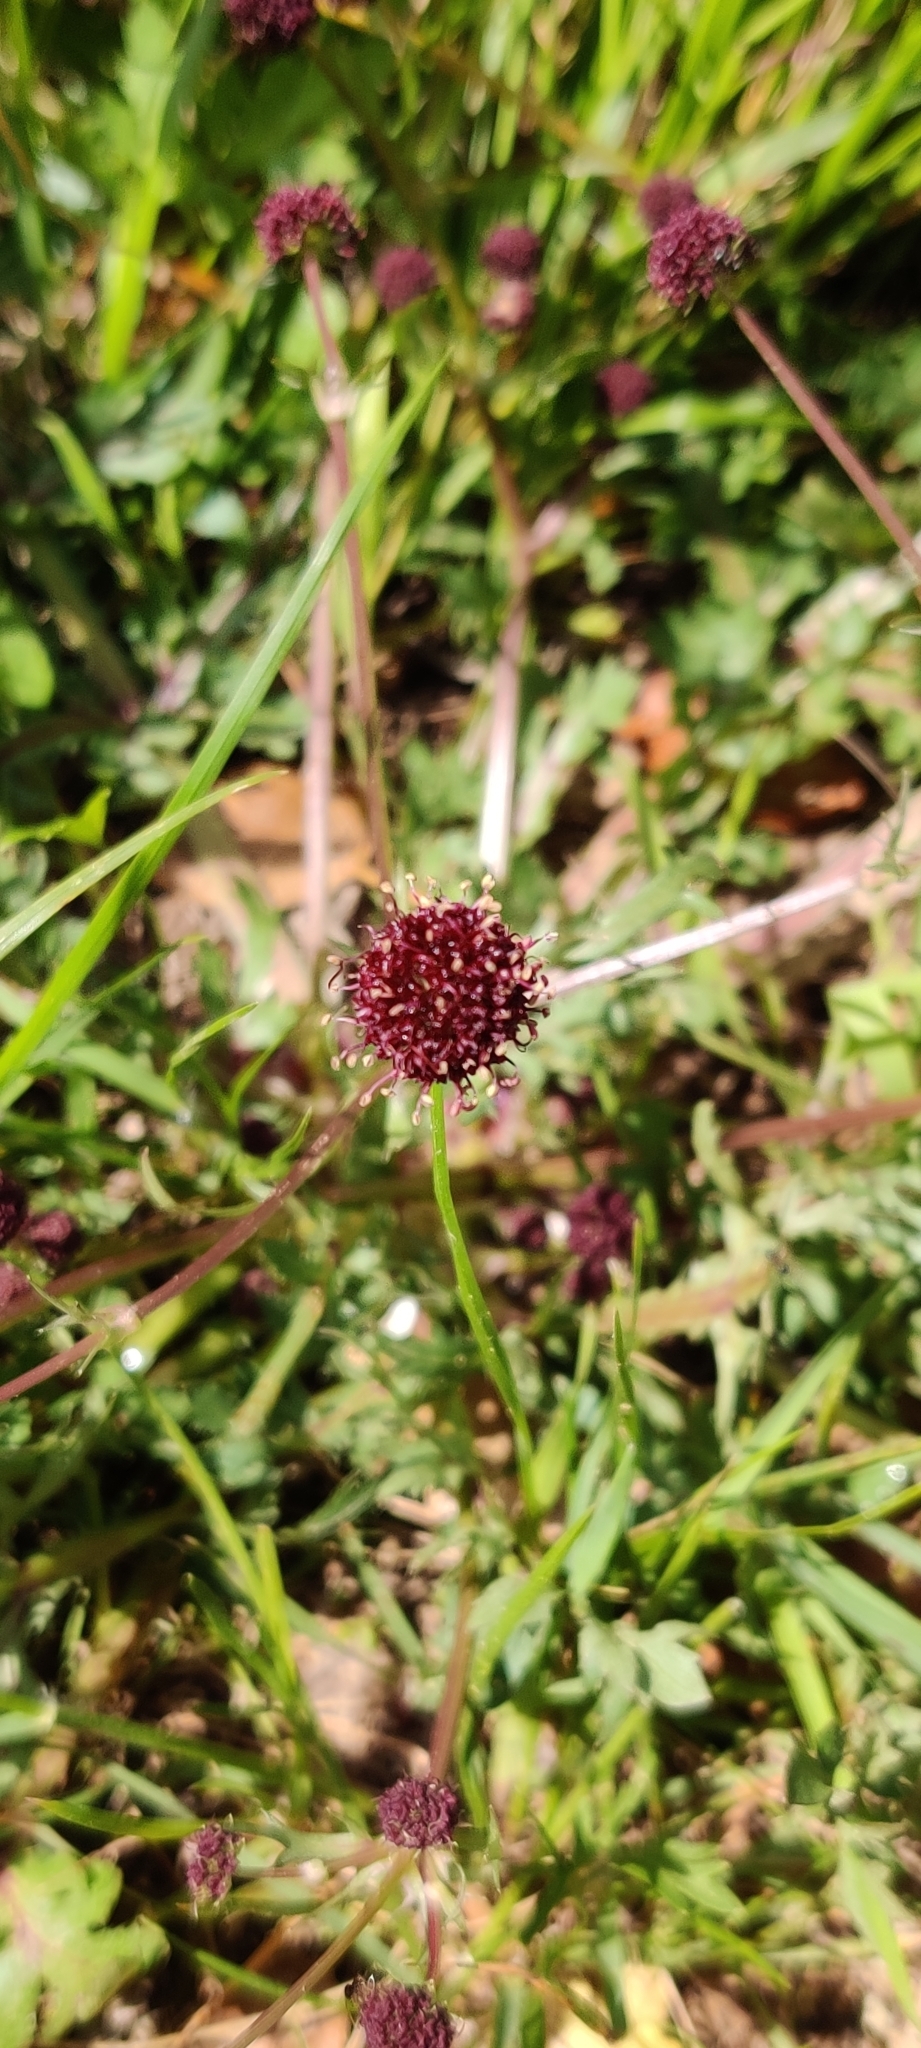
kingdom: Plantae
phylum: Tracheophyta
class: Magnoliopsida
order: Apiales
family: Apiaceae
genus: Sanicula
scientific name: Sanicula bipinnatifida
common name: Shoe-buttons
